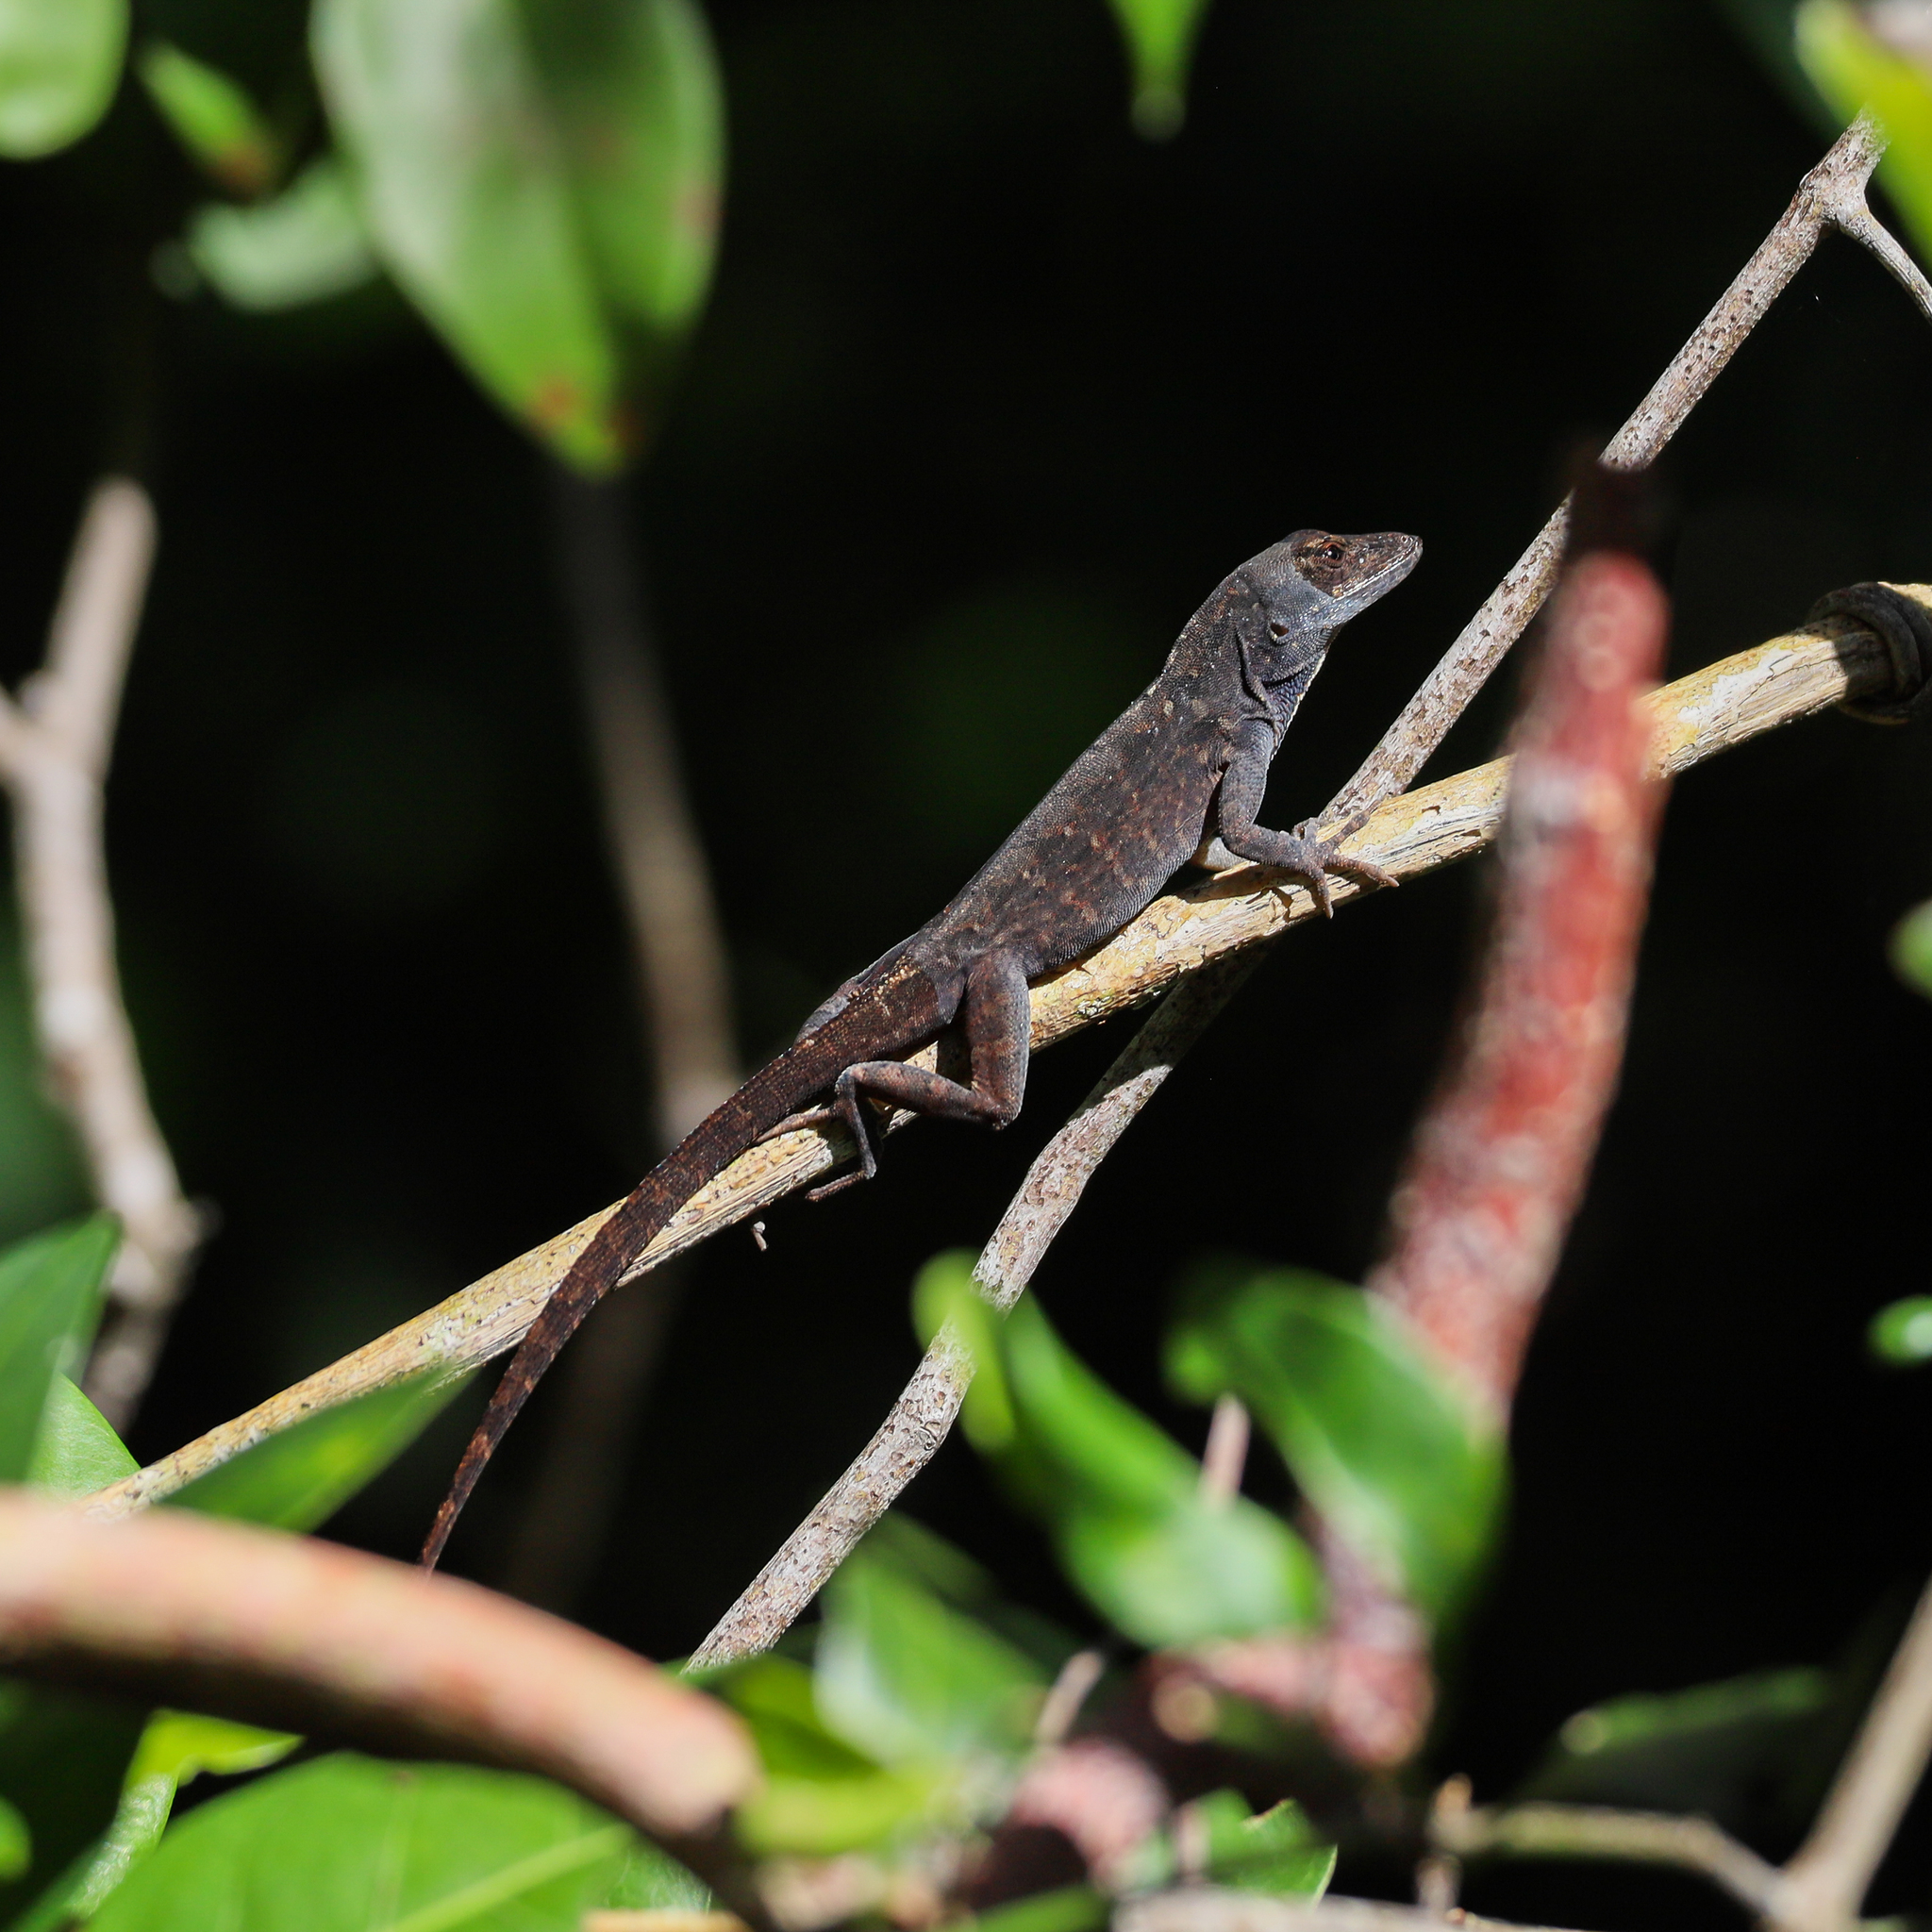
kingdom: Animalia
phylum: Chordata
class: Squamata
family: Dactyloidae
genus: Anolis
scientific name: Anolis sagrei
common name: Brown anole
